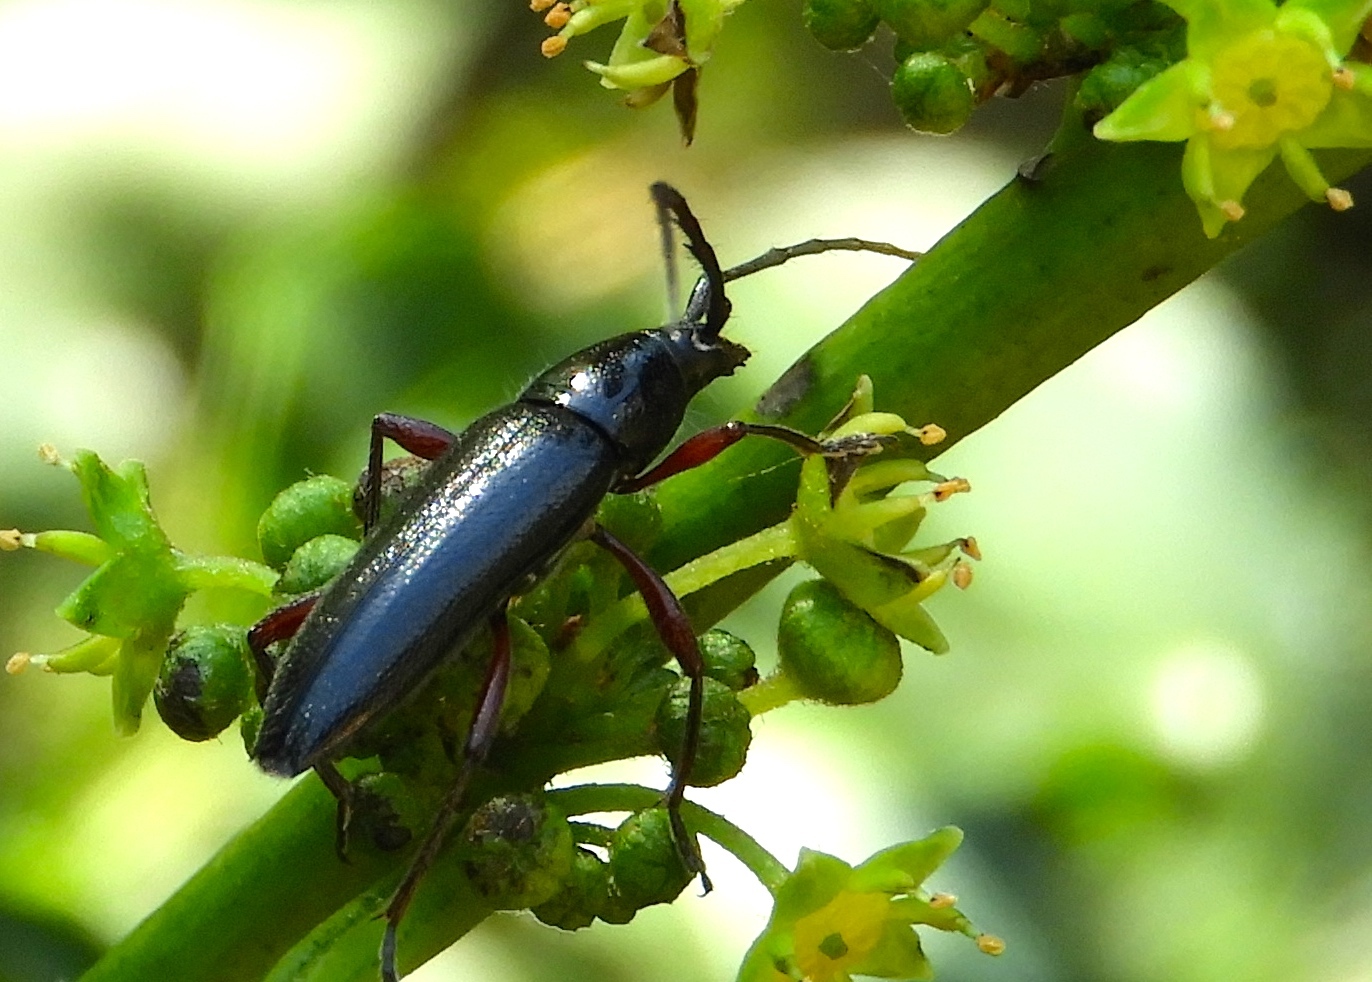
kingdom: Animalia
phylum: Arthropoda
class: Insecta
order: Coleoptera
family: Cerambycidae
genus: Stenosphenus
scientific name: Stenosphenus
